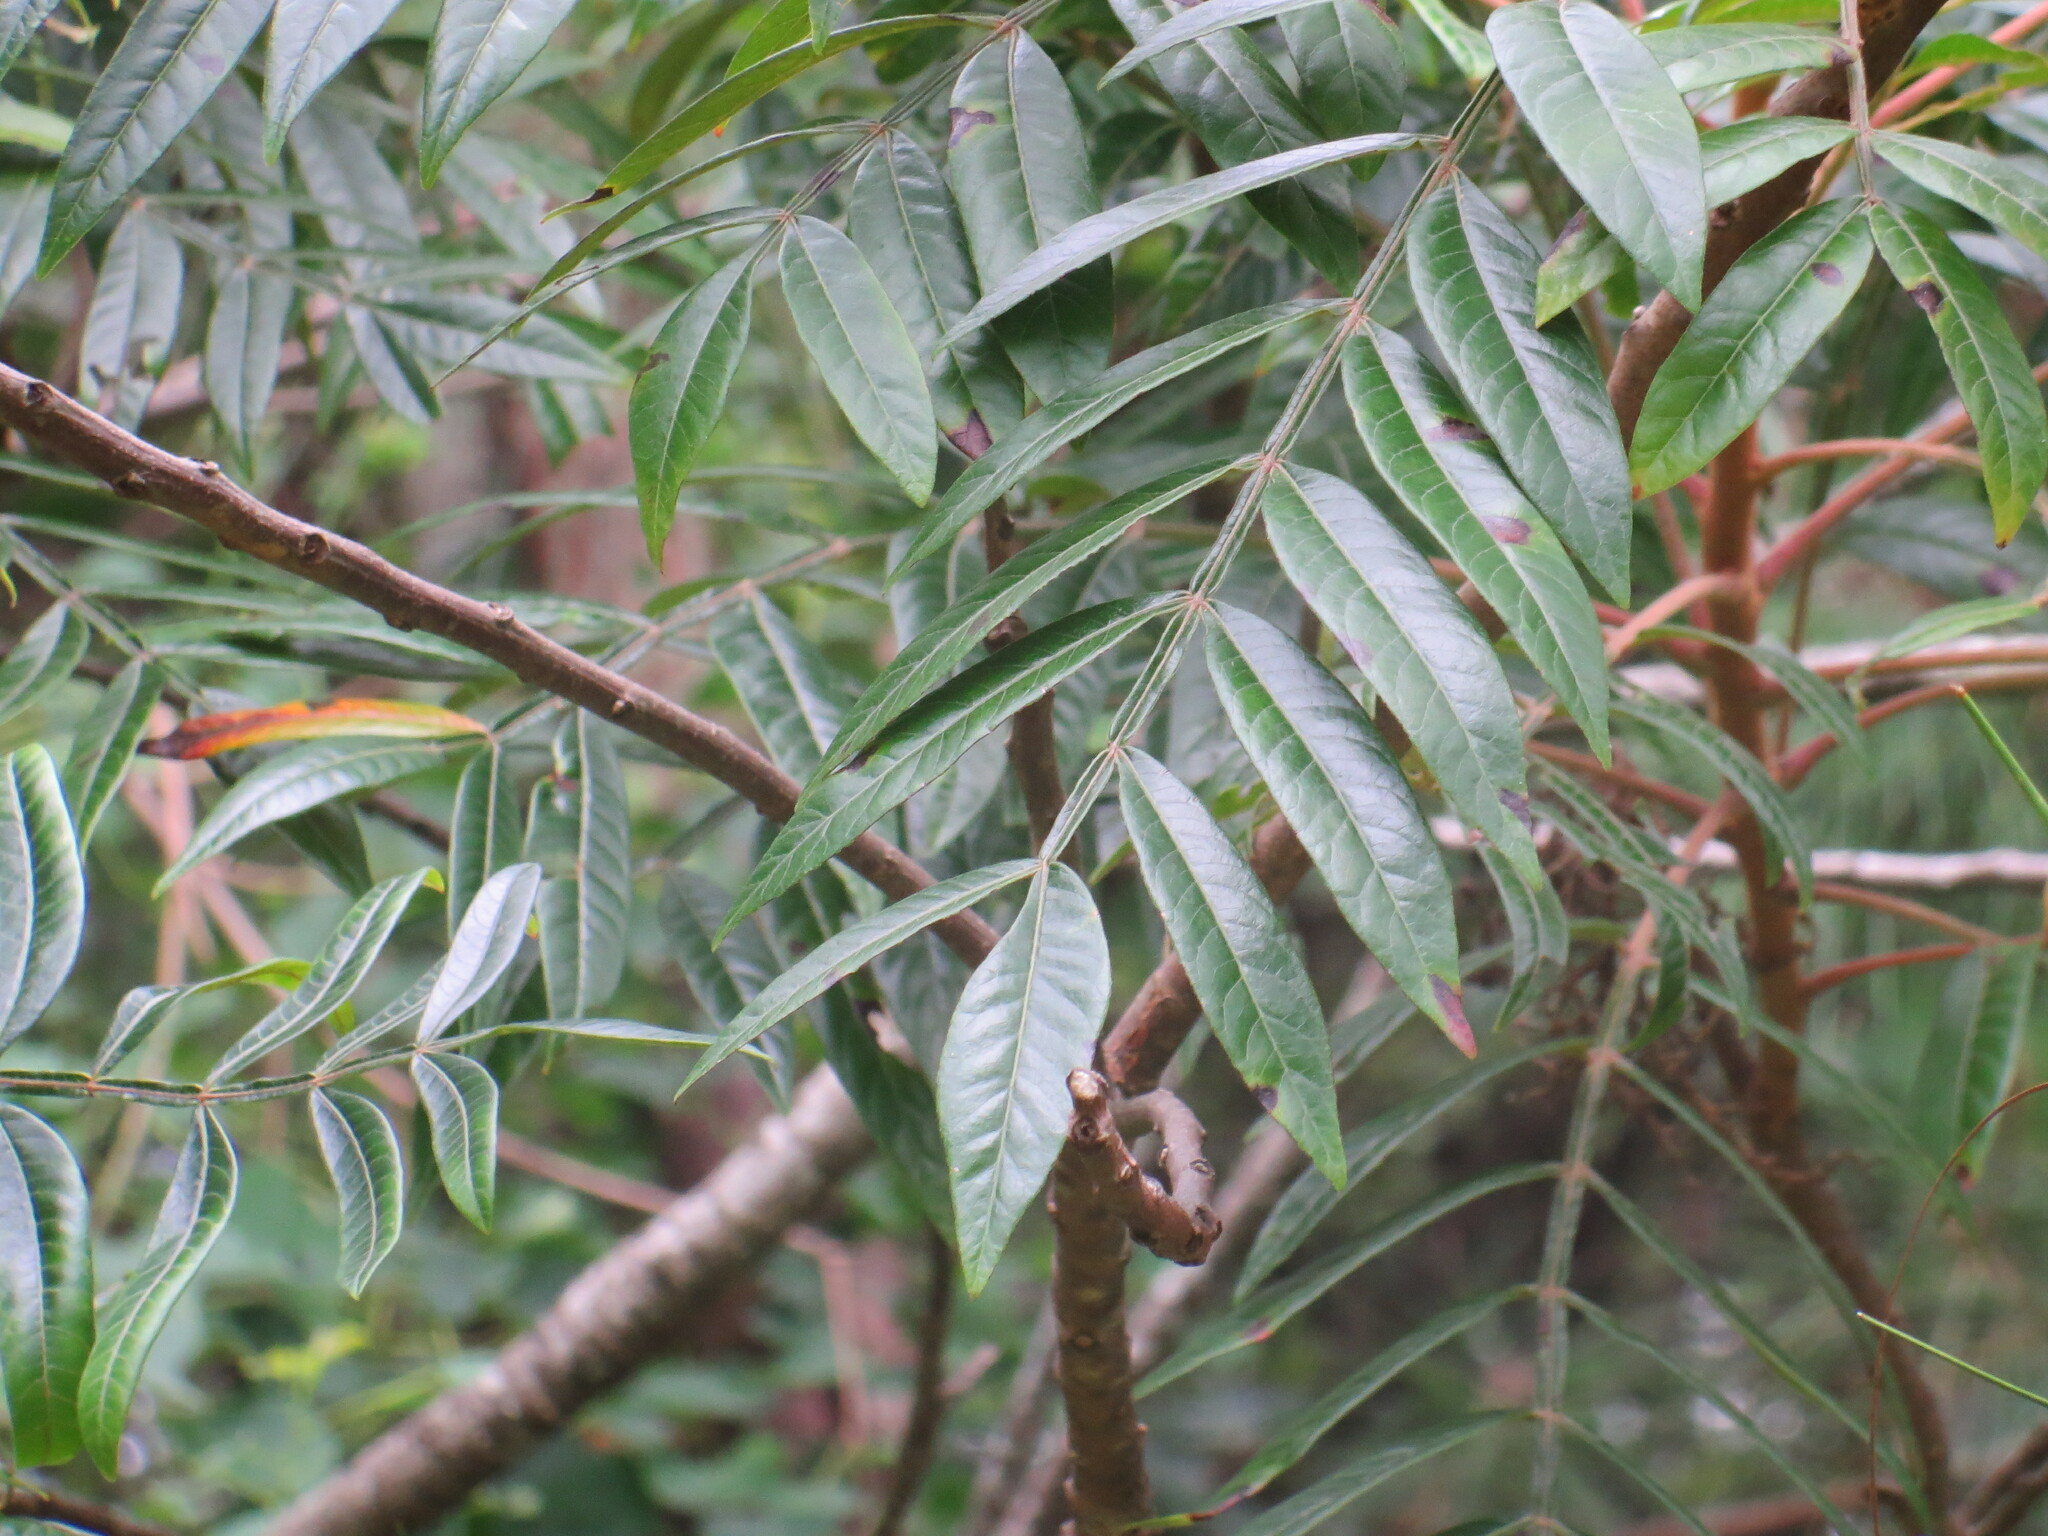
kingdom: Plantae
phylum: Tracheophyta
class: Magnoliopsida
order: Sapindales
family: Anacardiaceae
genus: Rhus
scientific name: Rhus copallina
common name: Shining sumac
